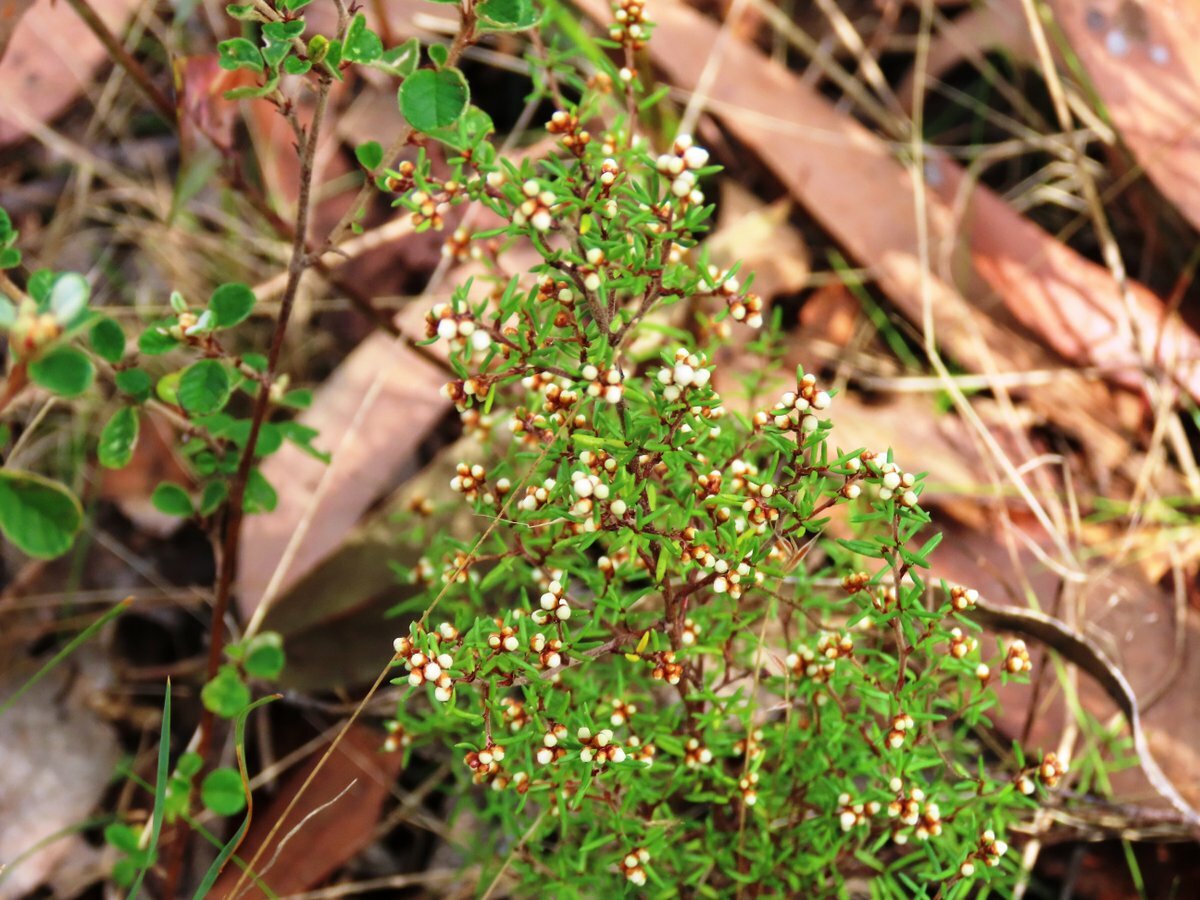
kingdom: Plantae
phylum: Tracheophyta
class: Magnoliopsida
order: Rosales
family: Rhamnaceae
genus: Cryptandra
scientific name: Cryptandra tomentosa
